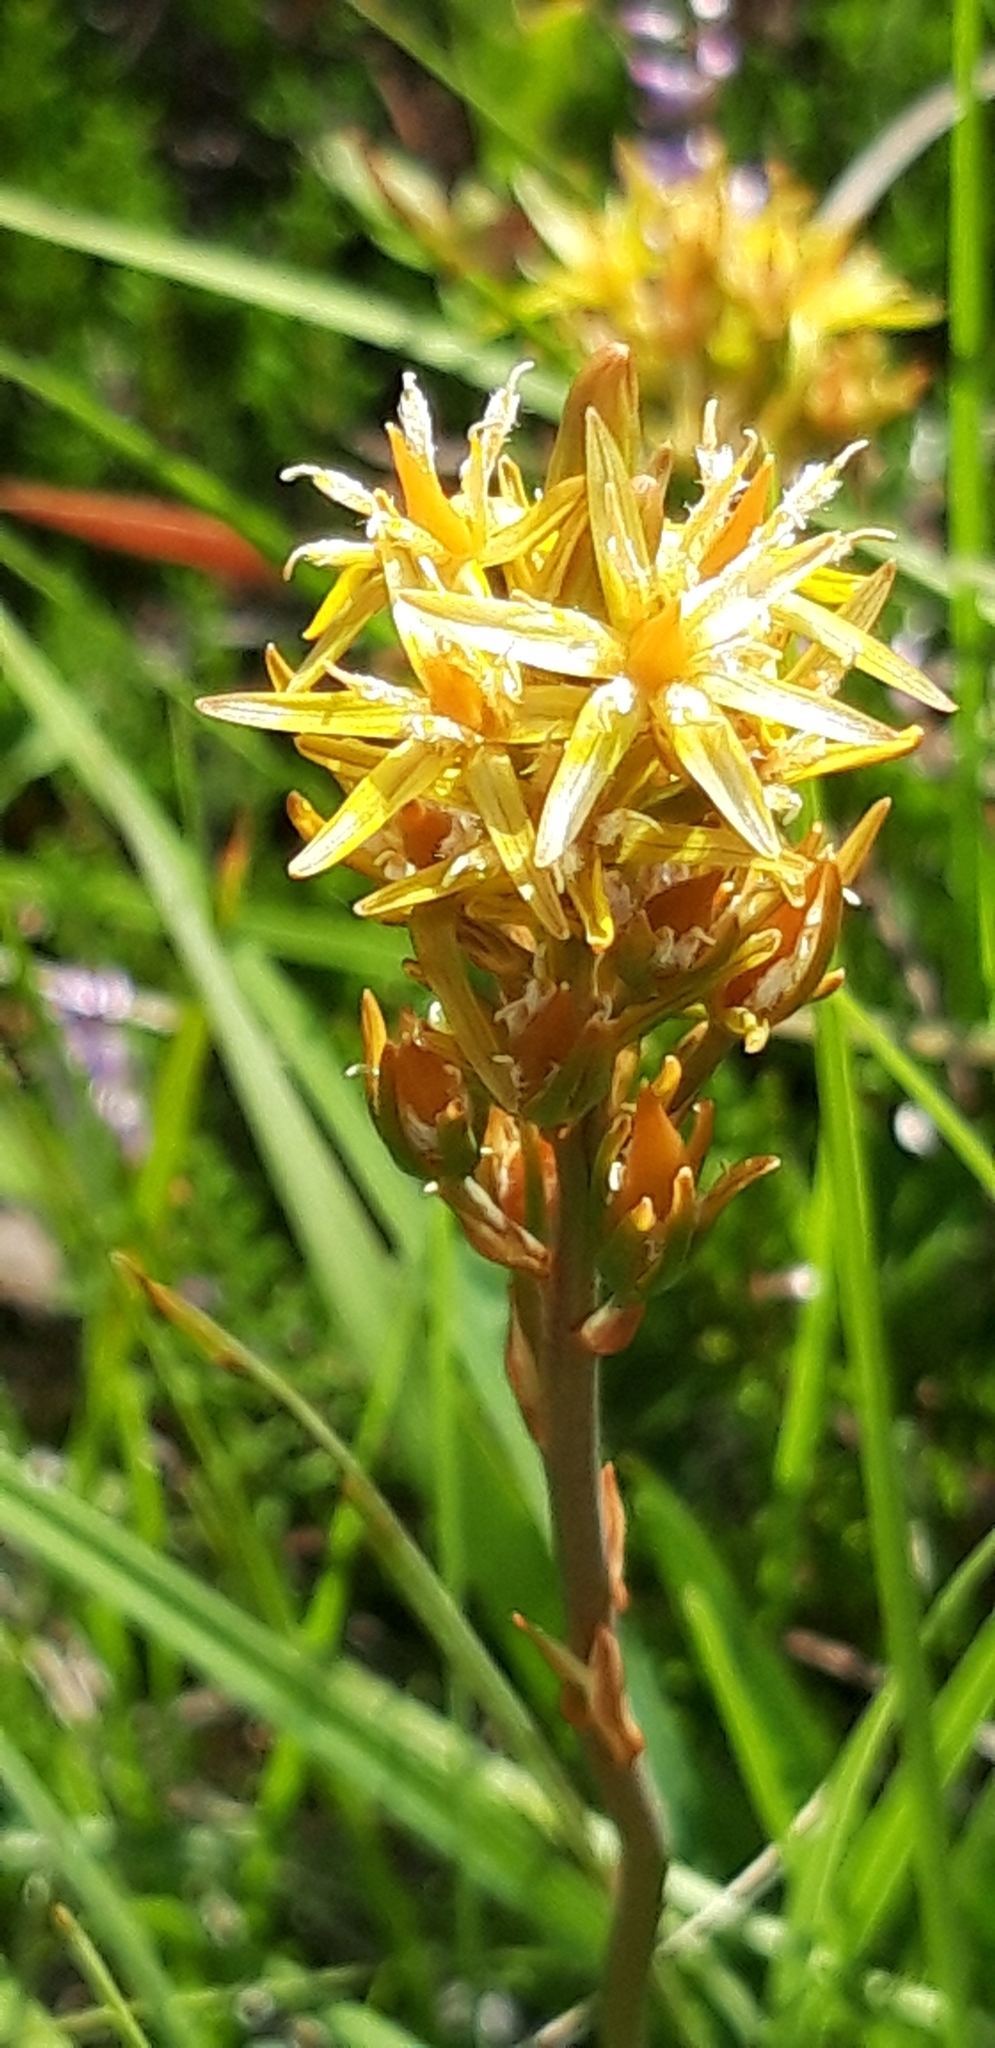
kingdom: Plantae
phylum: Tracheophyta
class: Liliopsida
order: Dioscoreales
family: Nartheciaceae
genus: Narthecium
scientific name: Narthecium ossifragum
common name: Bog asphodel
